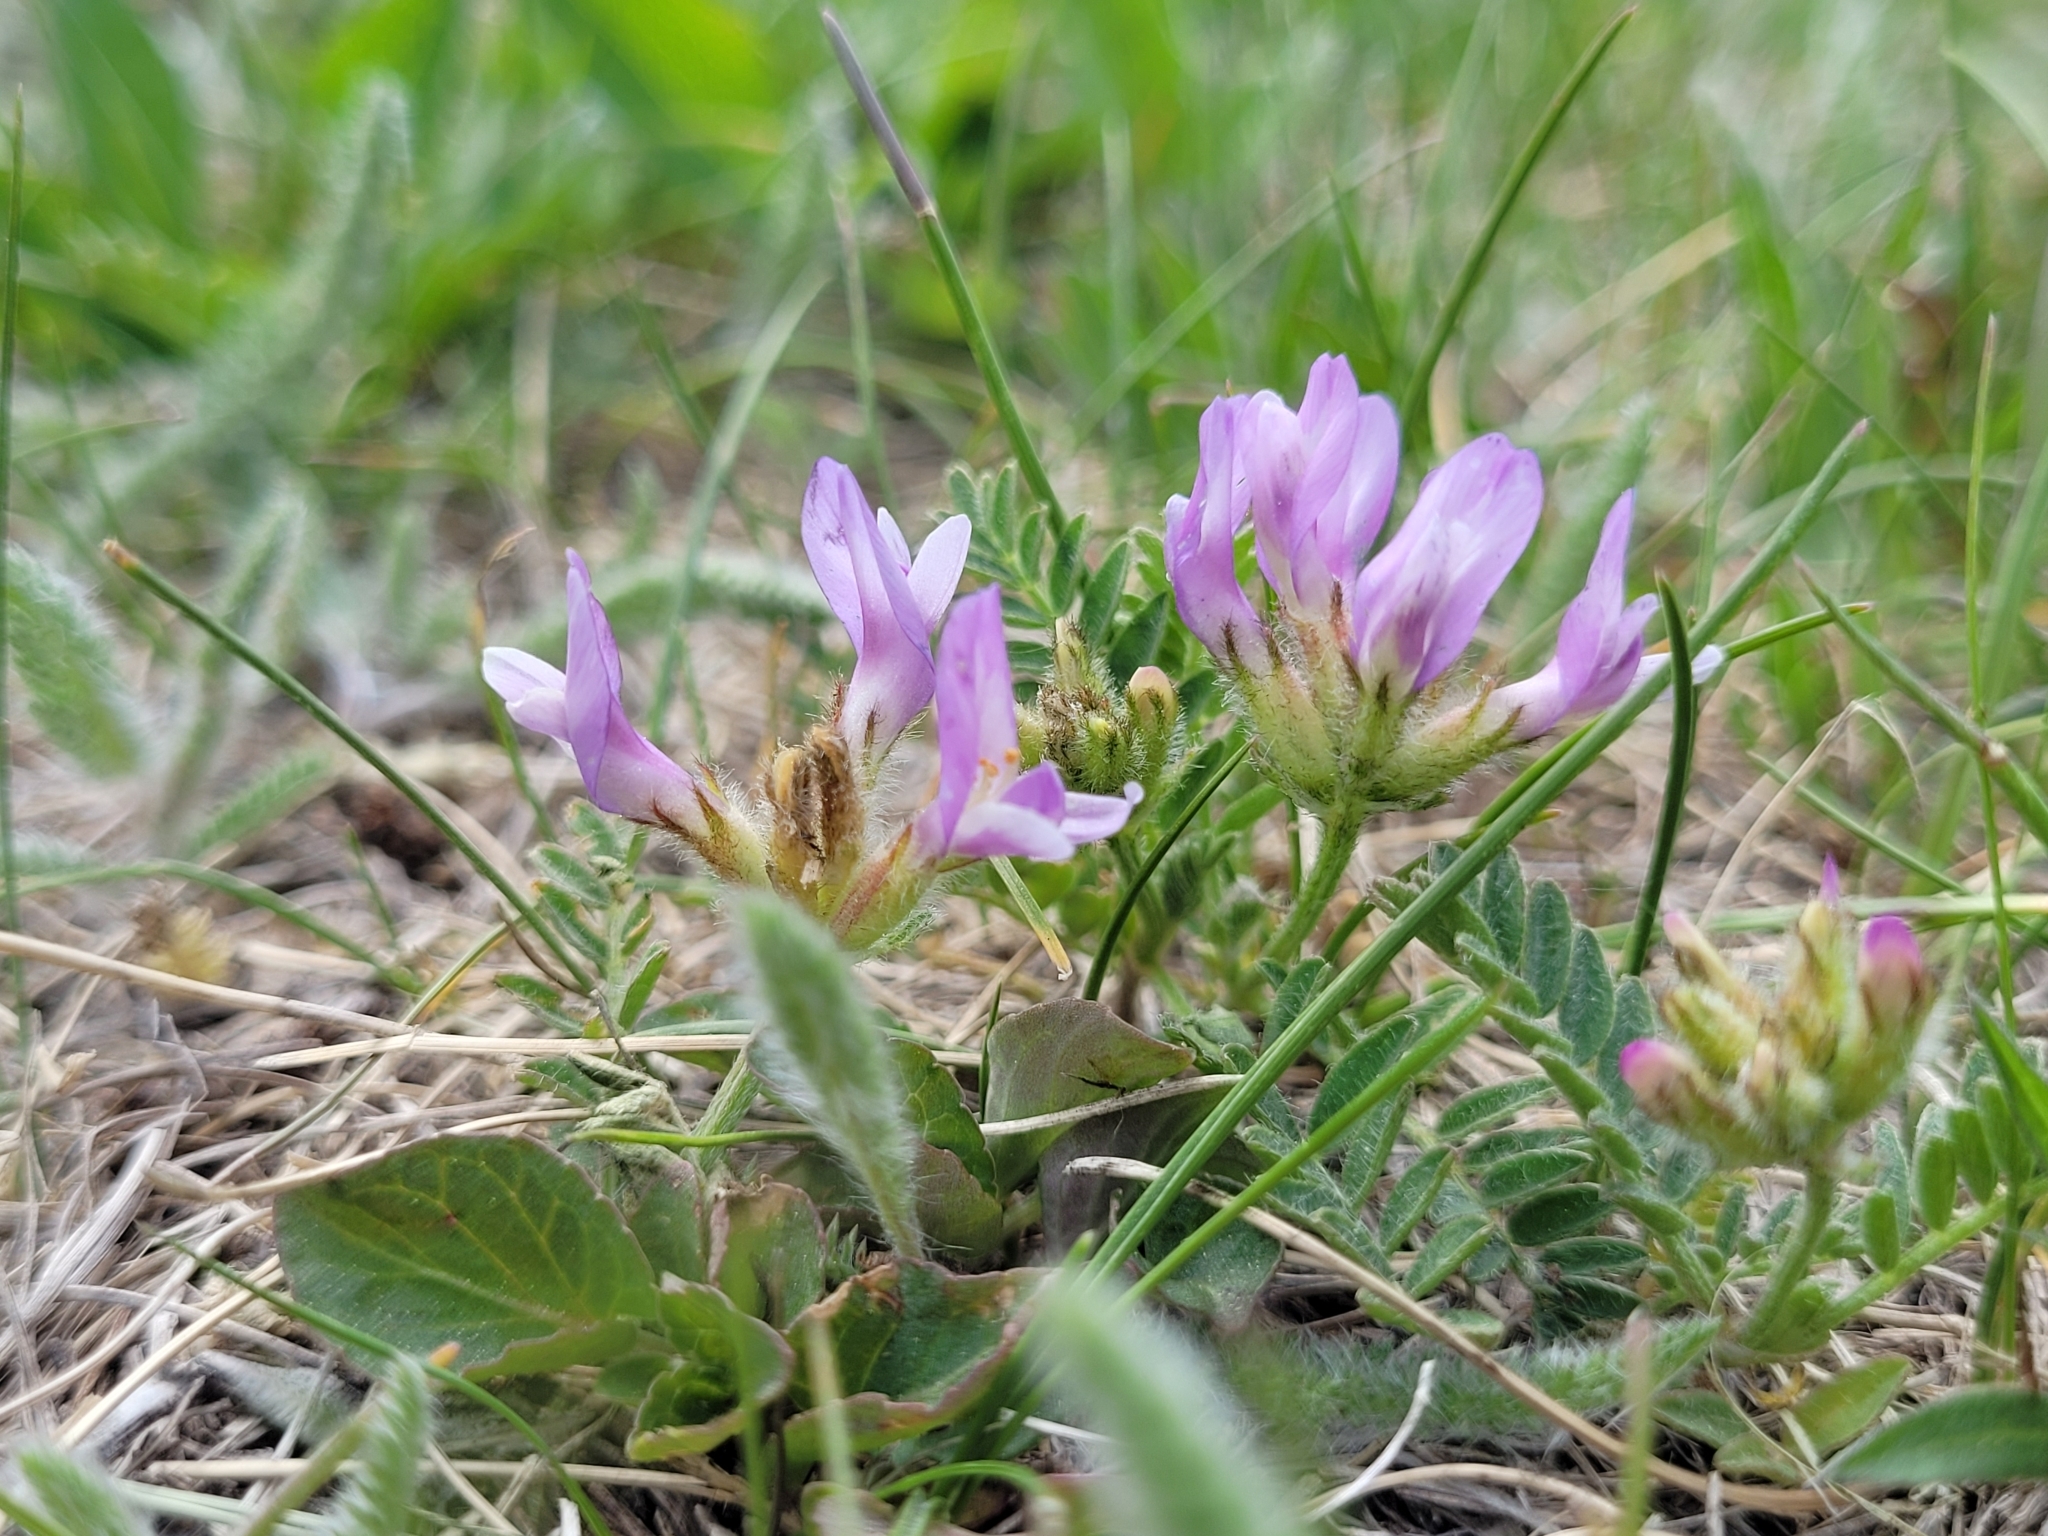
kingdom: Plantae
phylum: Tracheophyta
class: Magnoliopsida
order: Fabales
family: Fabaceae
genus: Astragalus
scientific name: Astragalus agrestis
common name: Field milk-vetch
